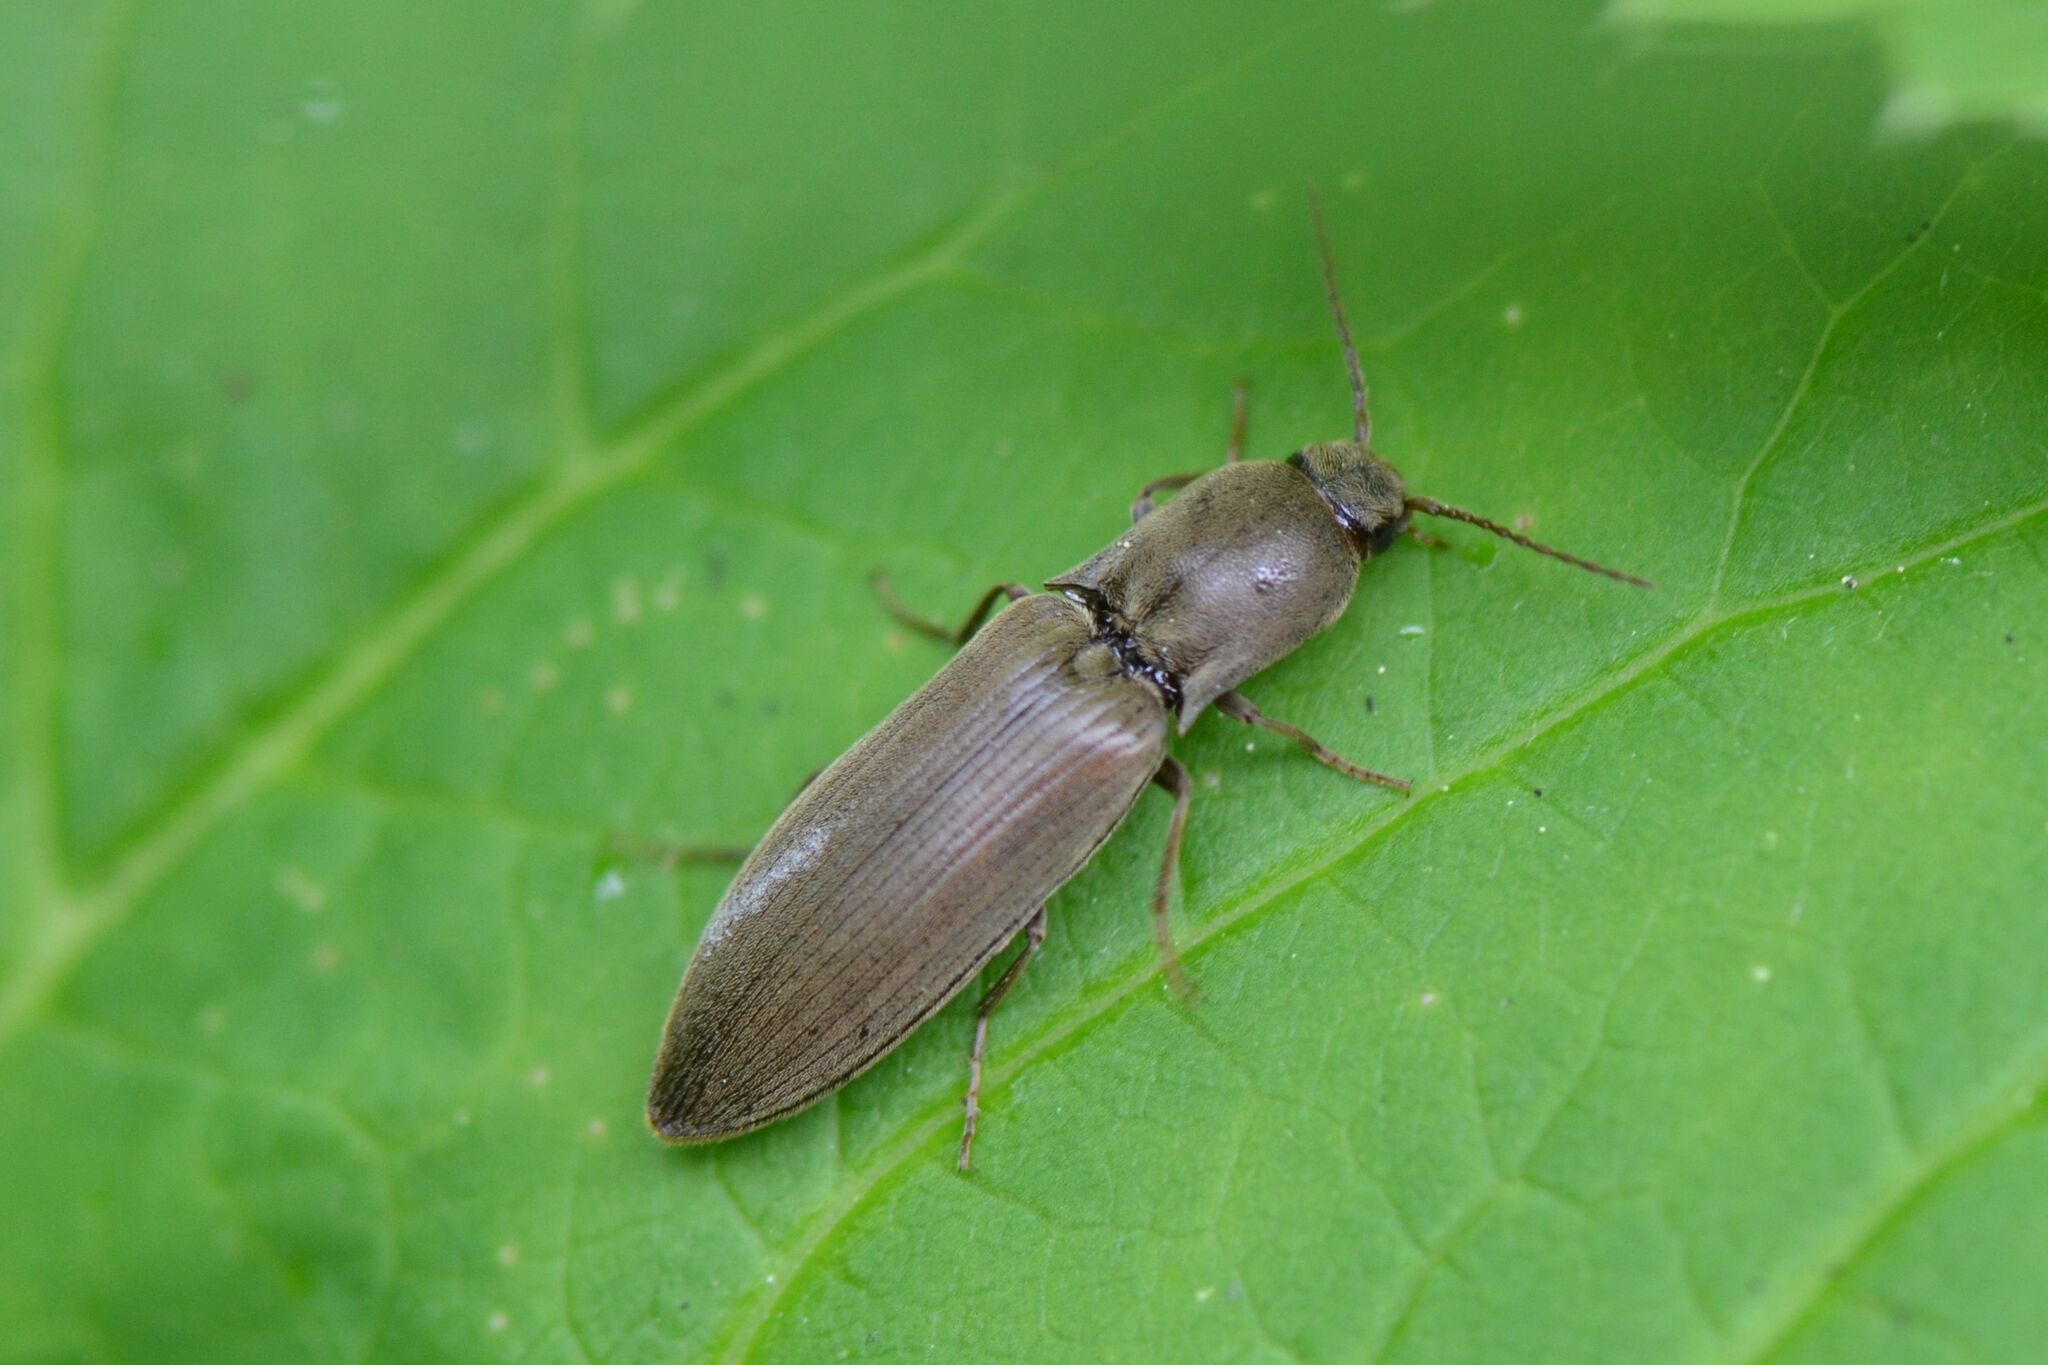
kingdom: Animalia
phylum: Arthropoda
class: Insecta
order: Coleoptera
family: Elateridae
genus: Agriotes
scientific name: Agriotes pilosellus
